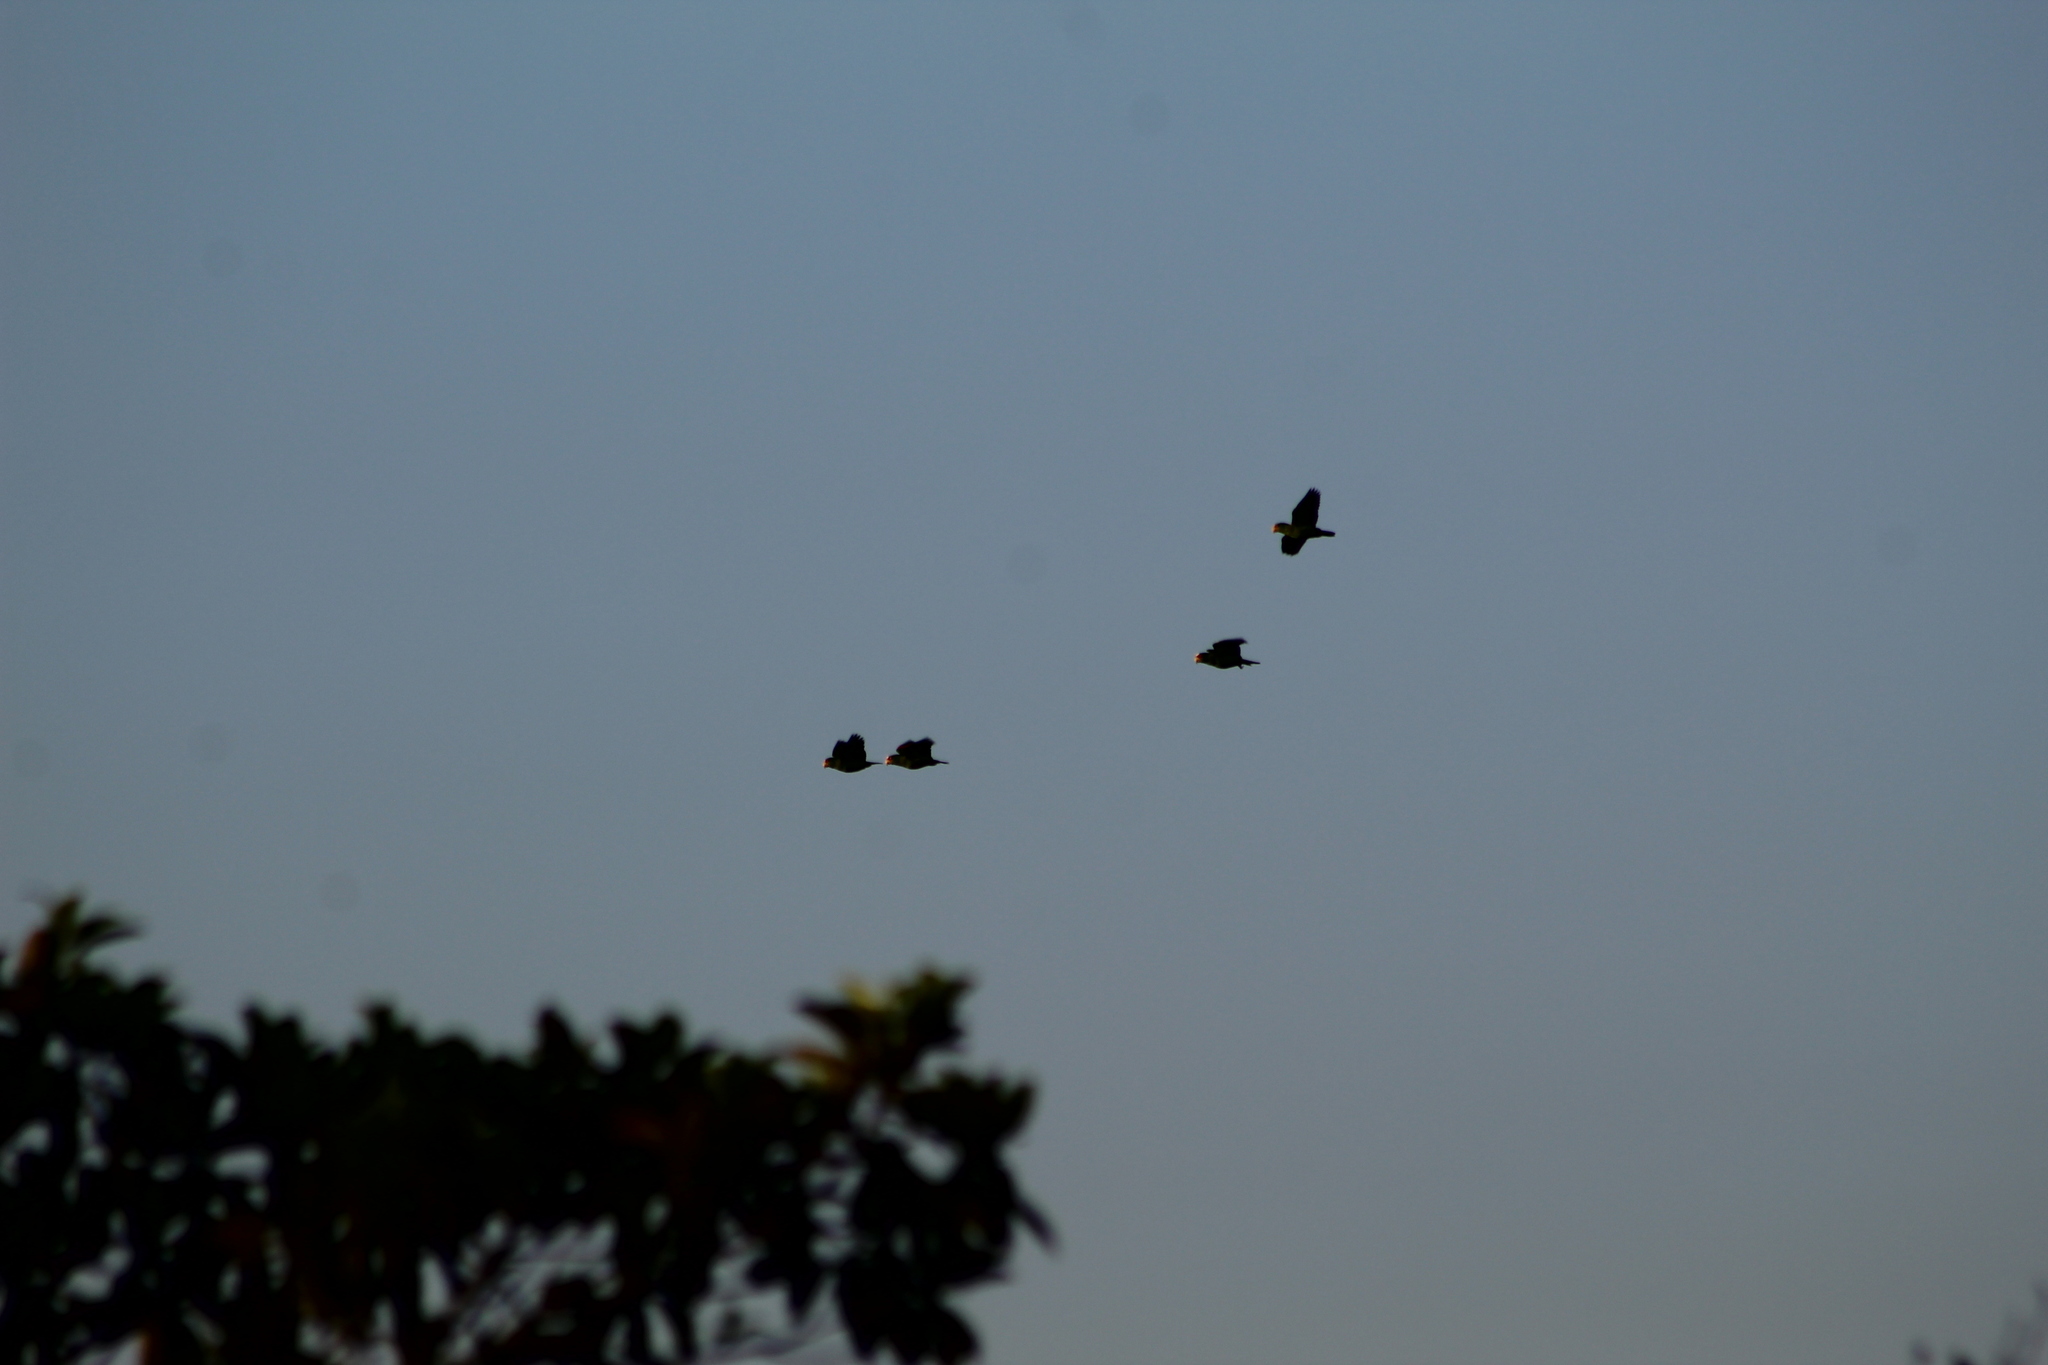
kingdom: Animalia
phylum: Chordata
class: Aves
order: Psittaciformes
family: Psittacidae
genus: Amazona
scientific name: Amazona albifrons
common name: White-fronted amazon
